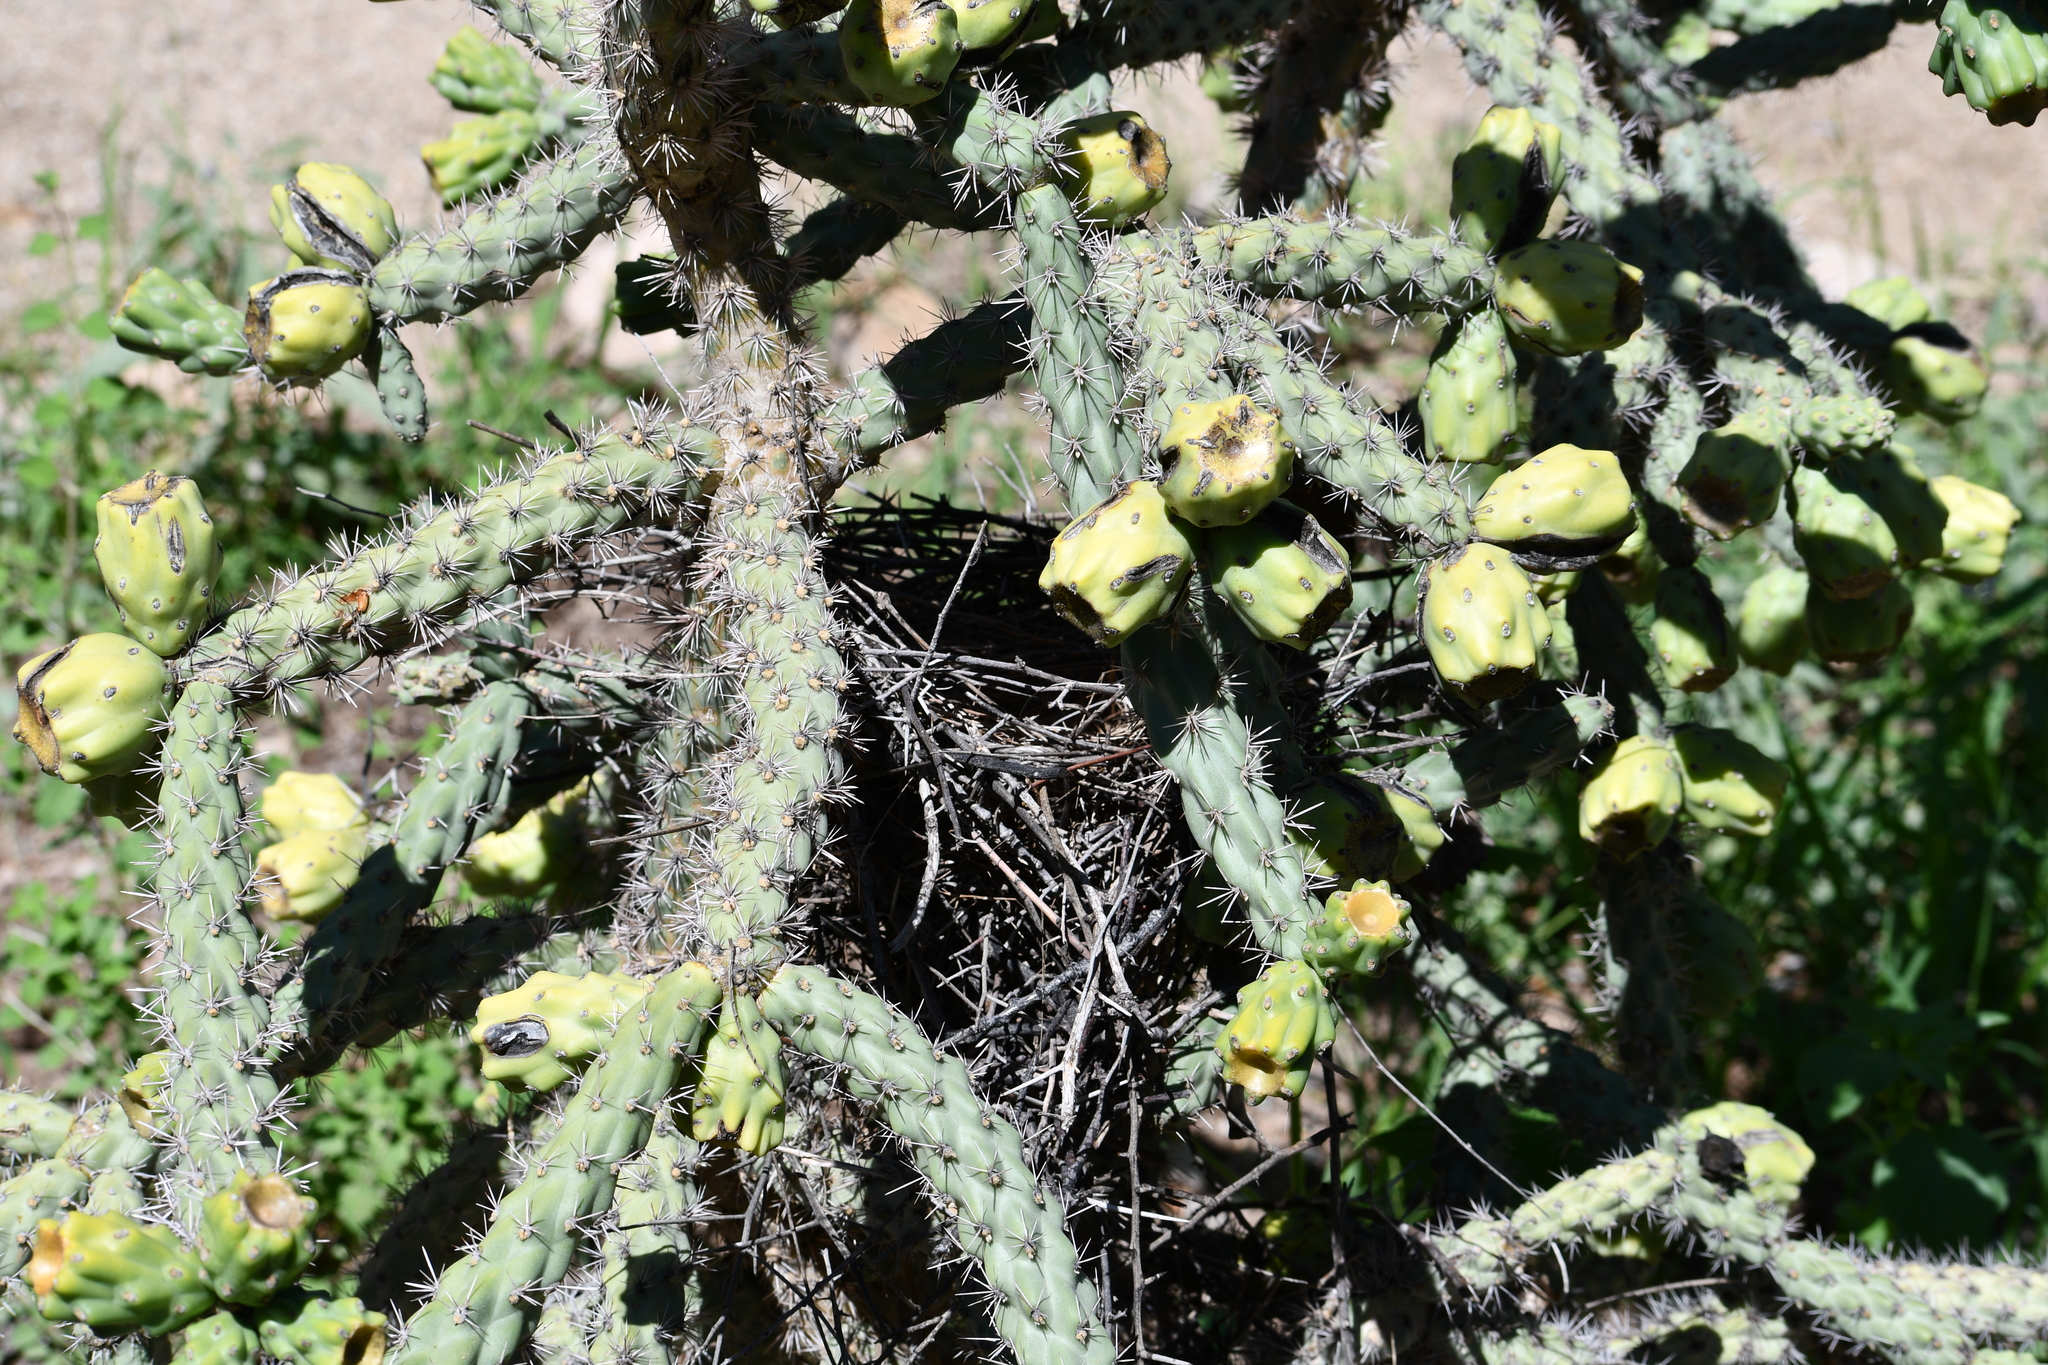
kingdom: Animalia
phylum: Chordata
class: Aves
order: Passeriformes
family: Mimidae
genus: Toxostoma
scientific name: Toxostoma curvirostre
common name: Curve-billed thrasher
